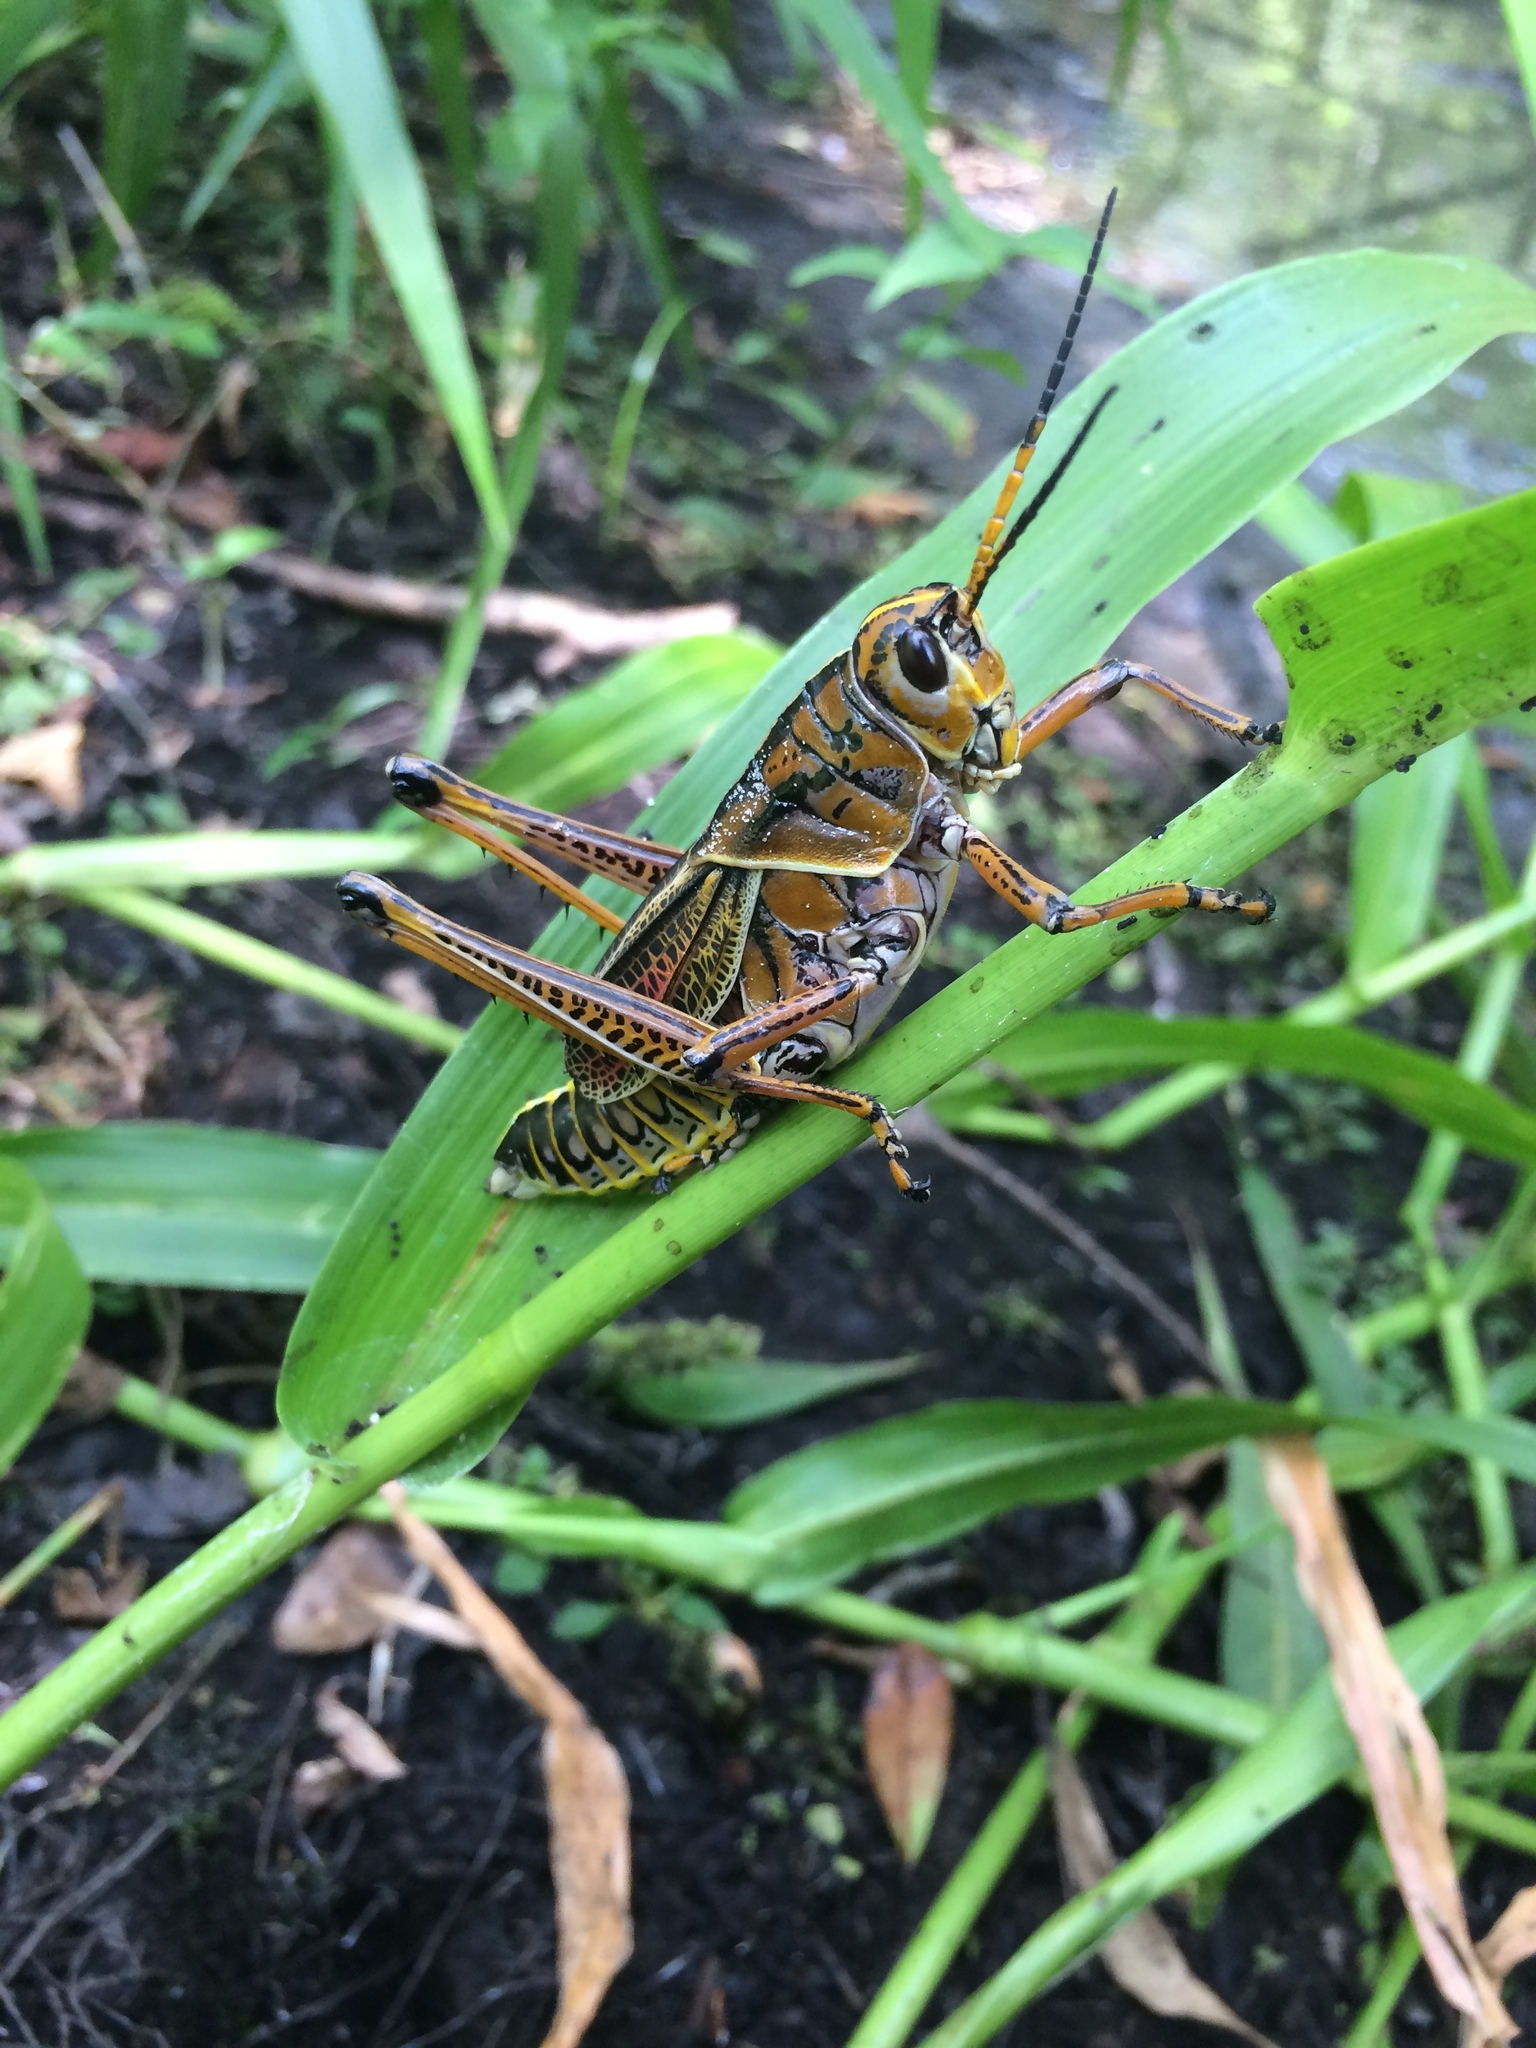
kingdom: Animalia
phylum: Arthropoda
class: Insecta
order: Orthoptera
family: Romaleidae
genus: Romalea
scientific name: Romalea microptera
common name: Eastern lubber grasshopper
